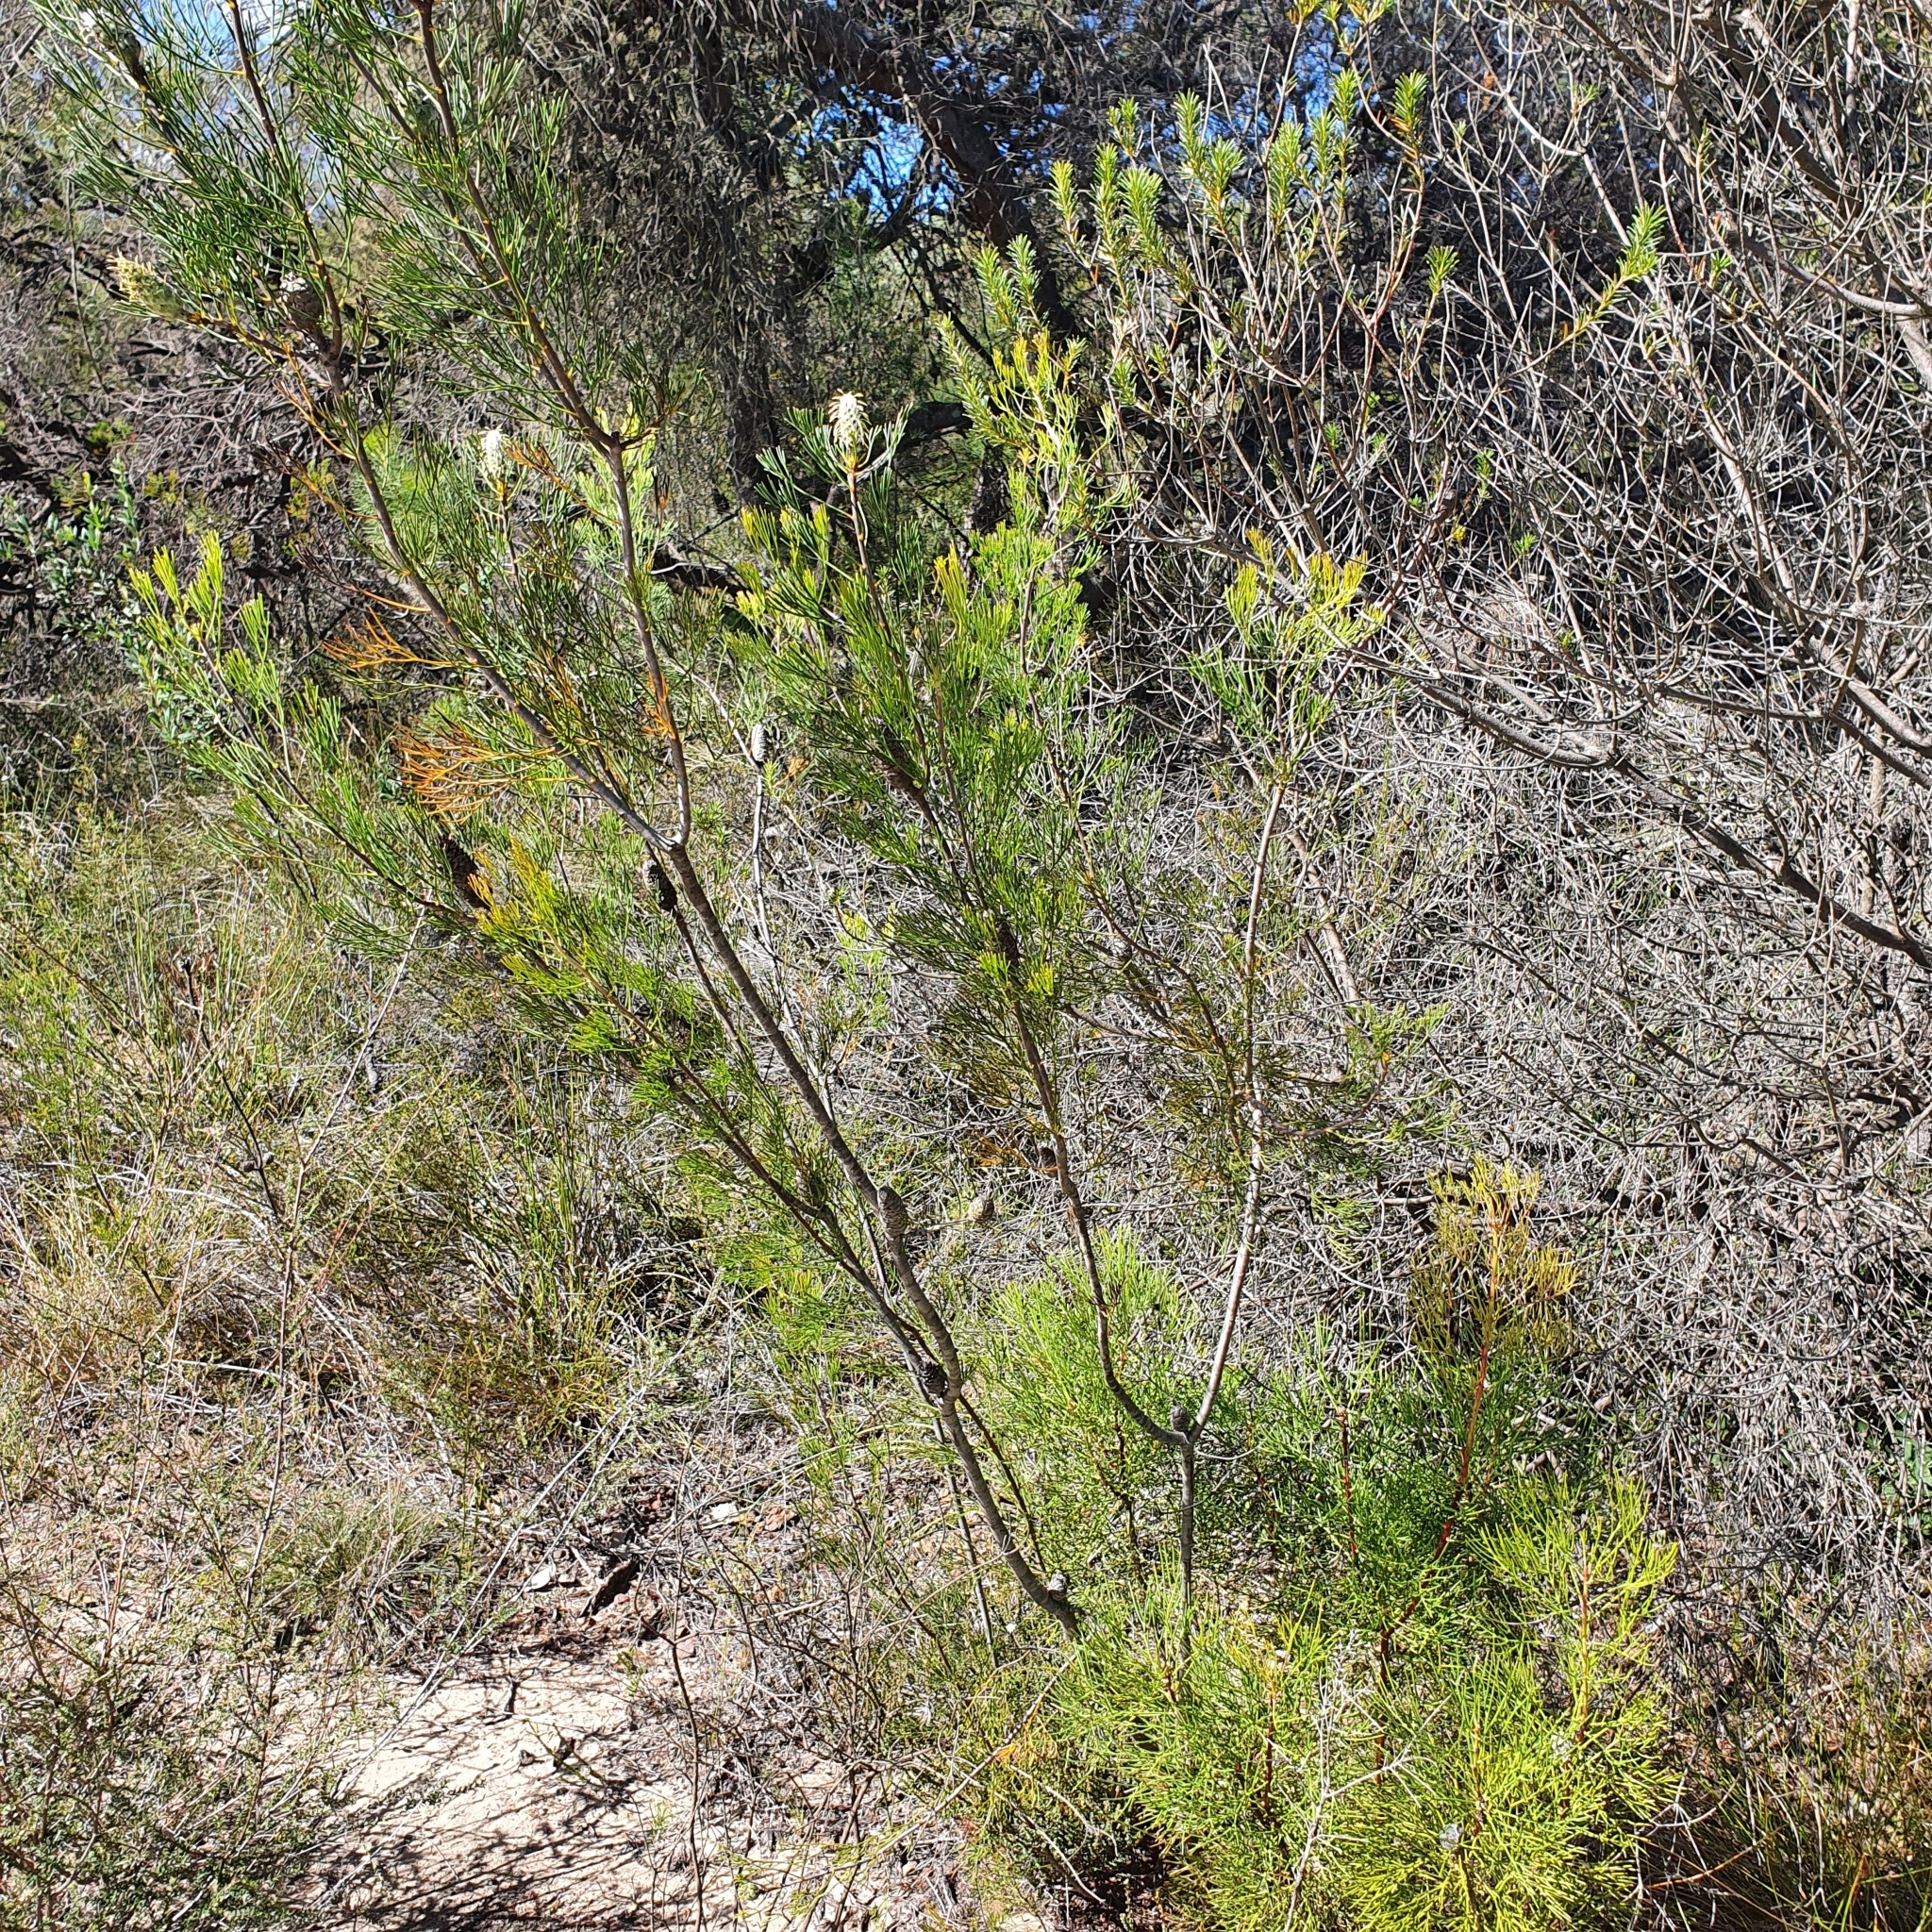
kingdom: Plantae
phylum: Tracheophyta
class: Magnoliopsida
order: Proteales
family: Proteaceae
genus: Petrophile
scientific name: Petrophile pulchella
